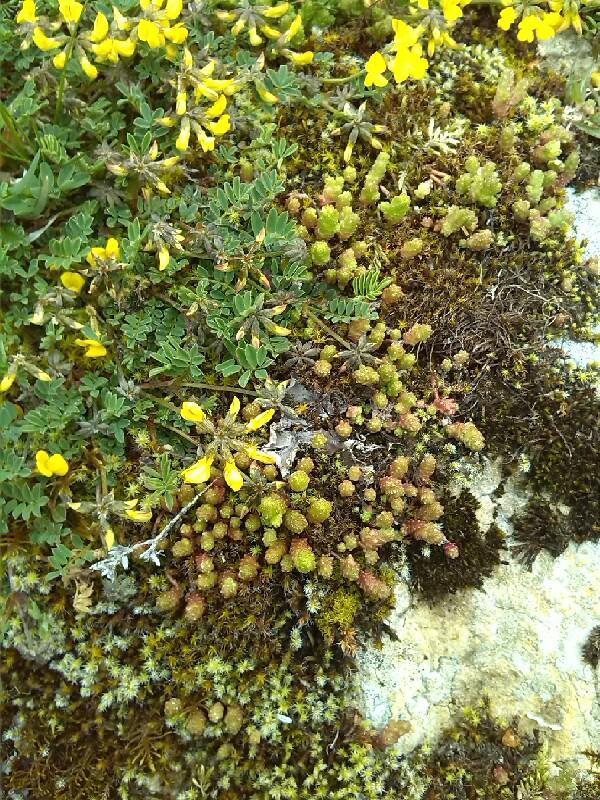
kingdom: Plantae
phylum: Tracheophyta
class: Magnoliopsida
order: Saxifragales
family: Crassulaceae
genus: Sedum
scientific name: Sedum acre
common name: Biting stonecrop
